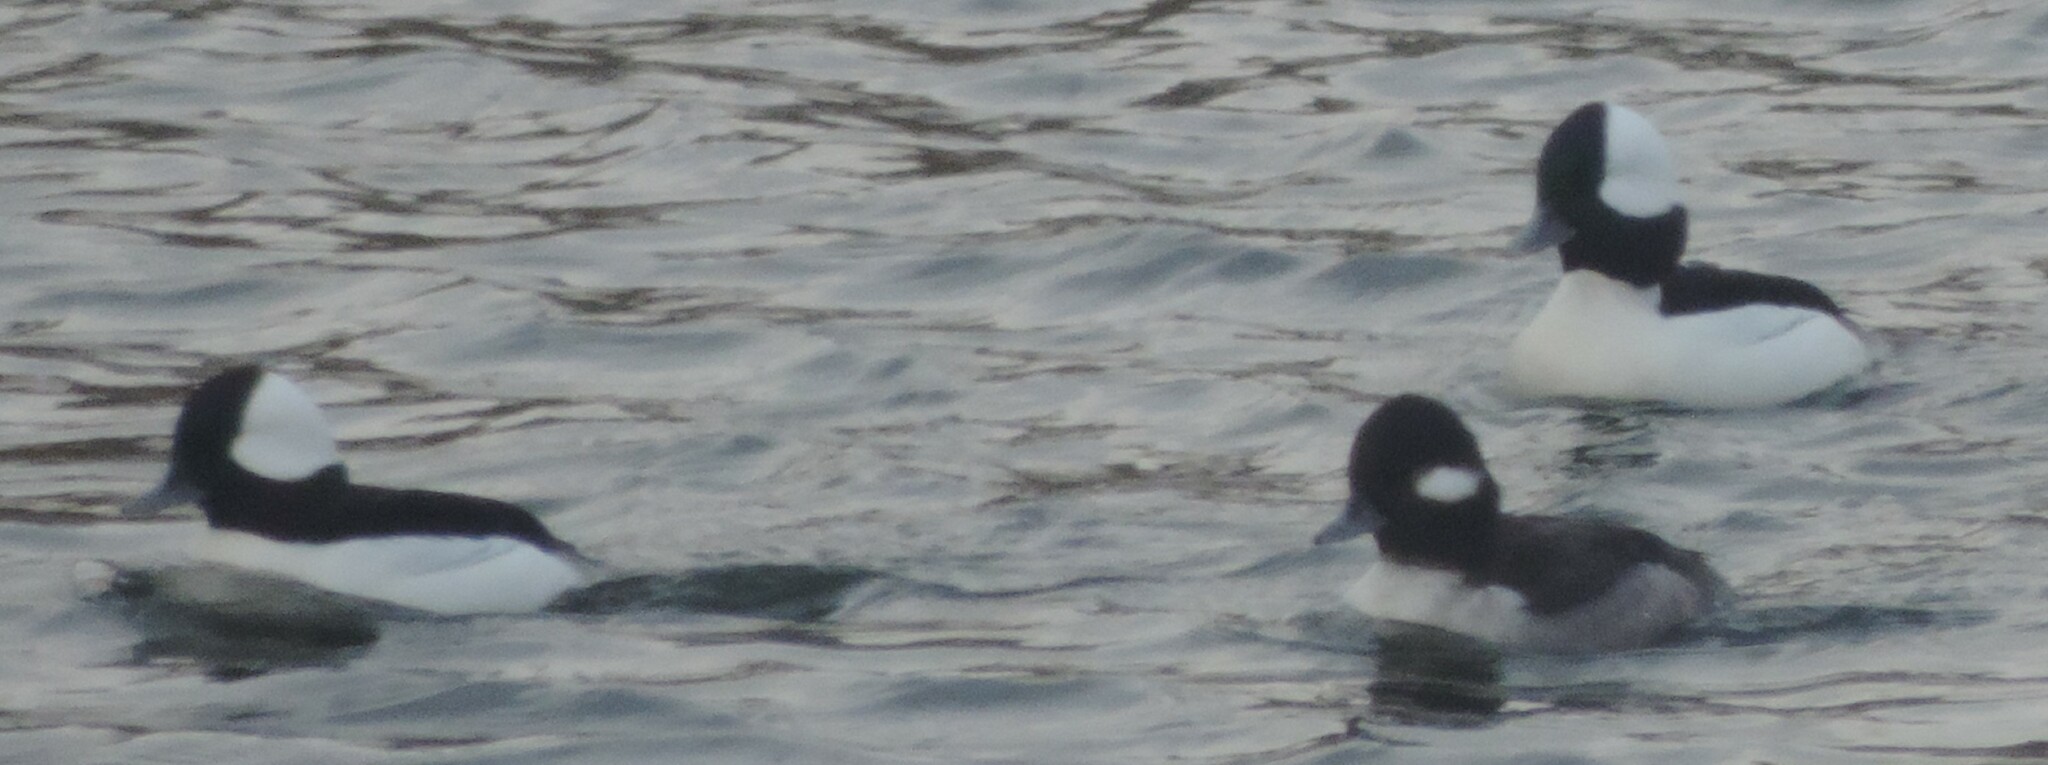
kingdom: Animalia
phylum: Chordata
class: Aves
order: Anseriformes
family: Anatidae
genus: Bucephala
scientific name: Bucephala albeola
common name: Bufflehead
